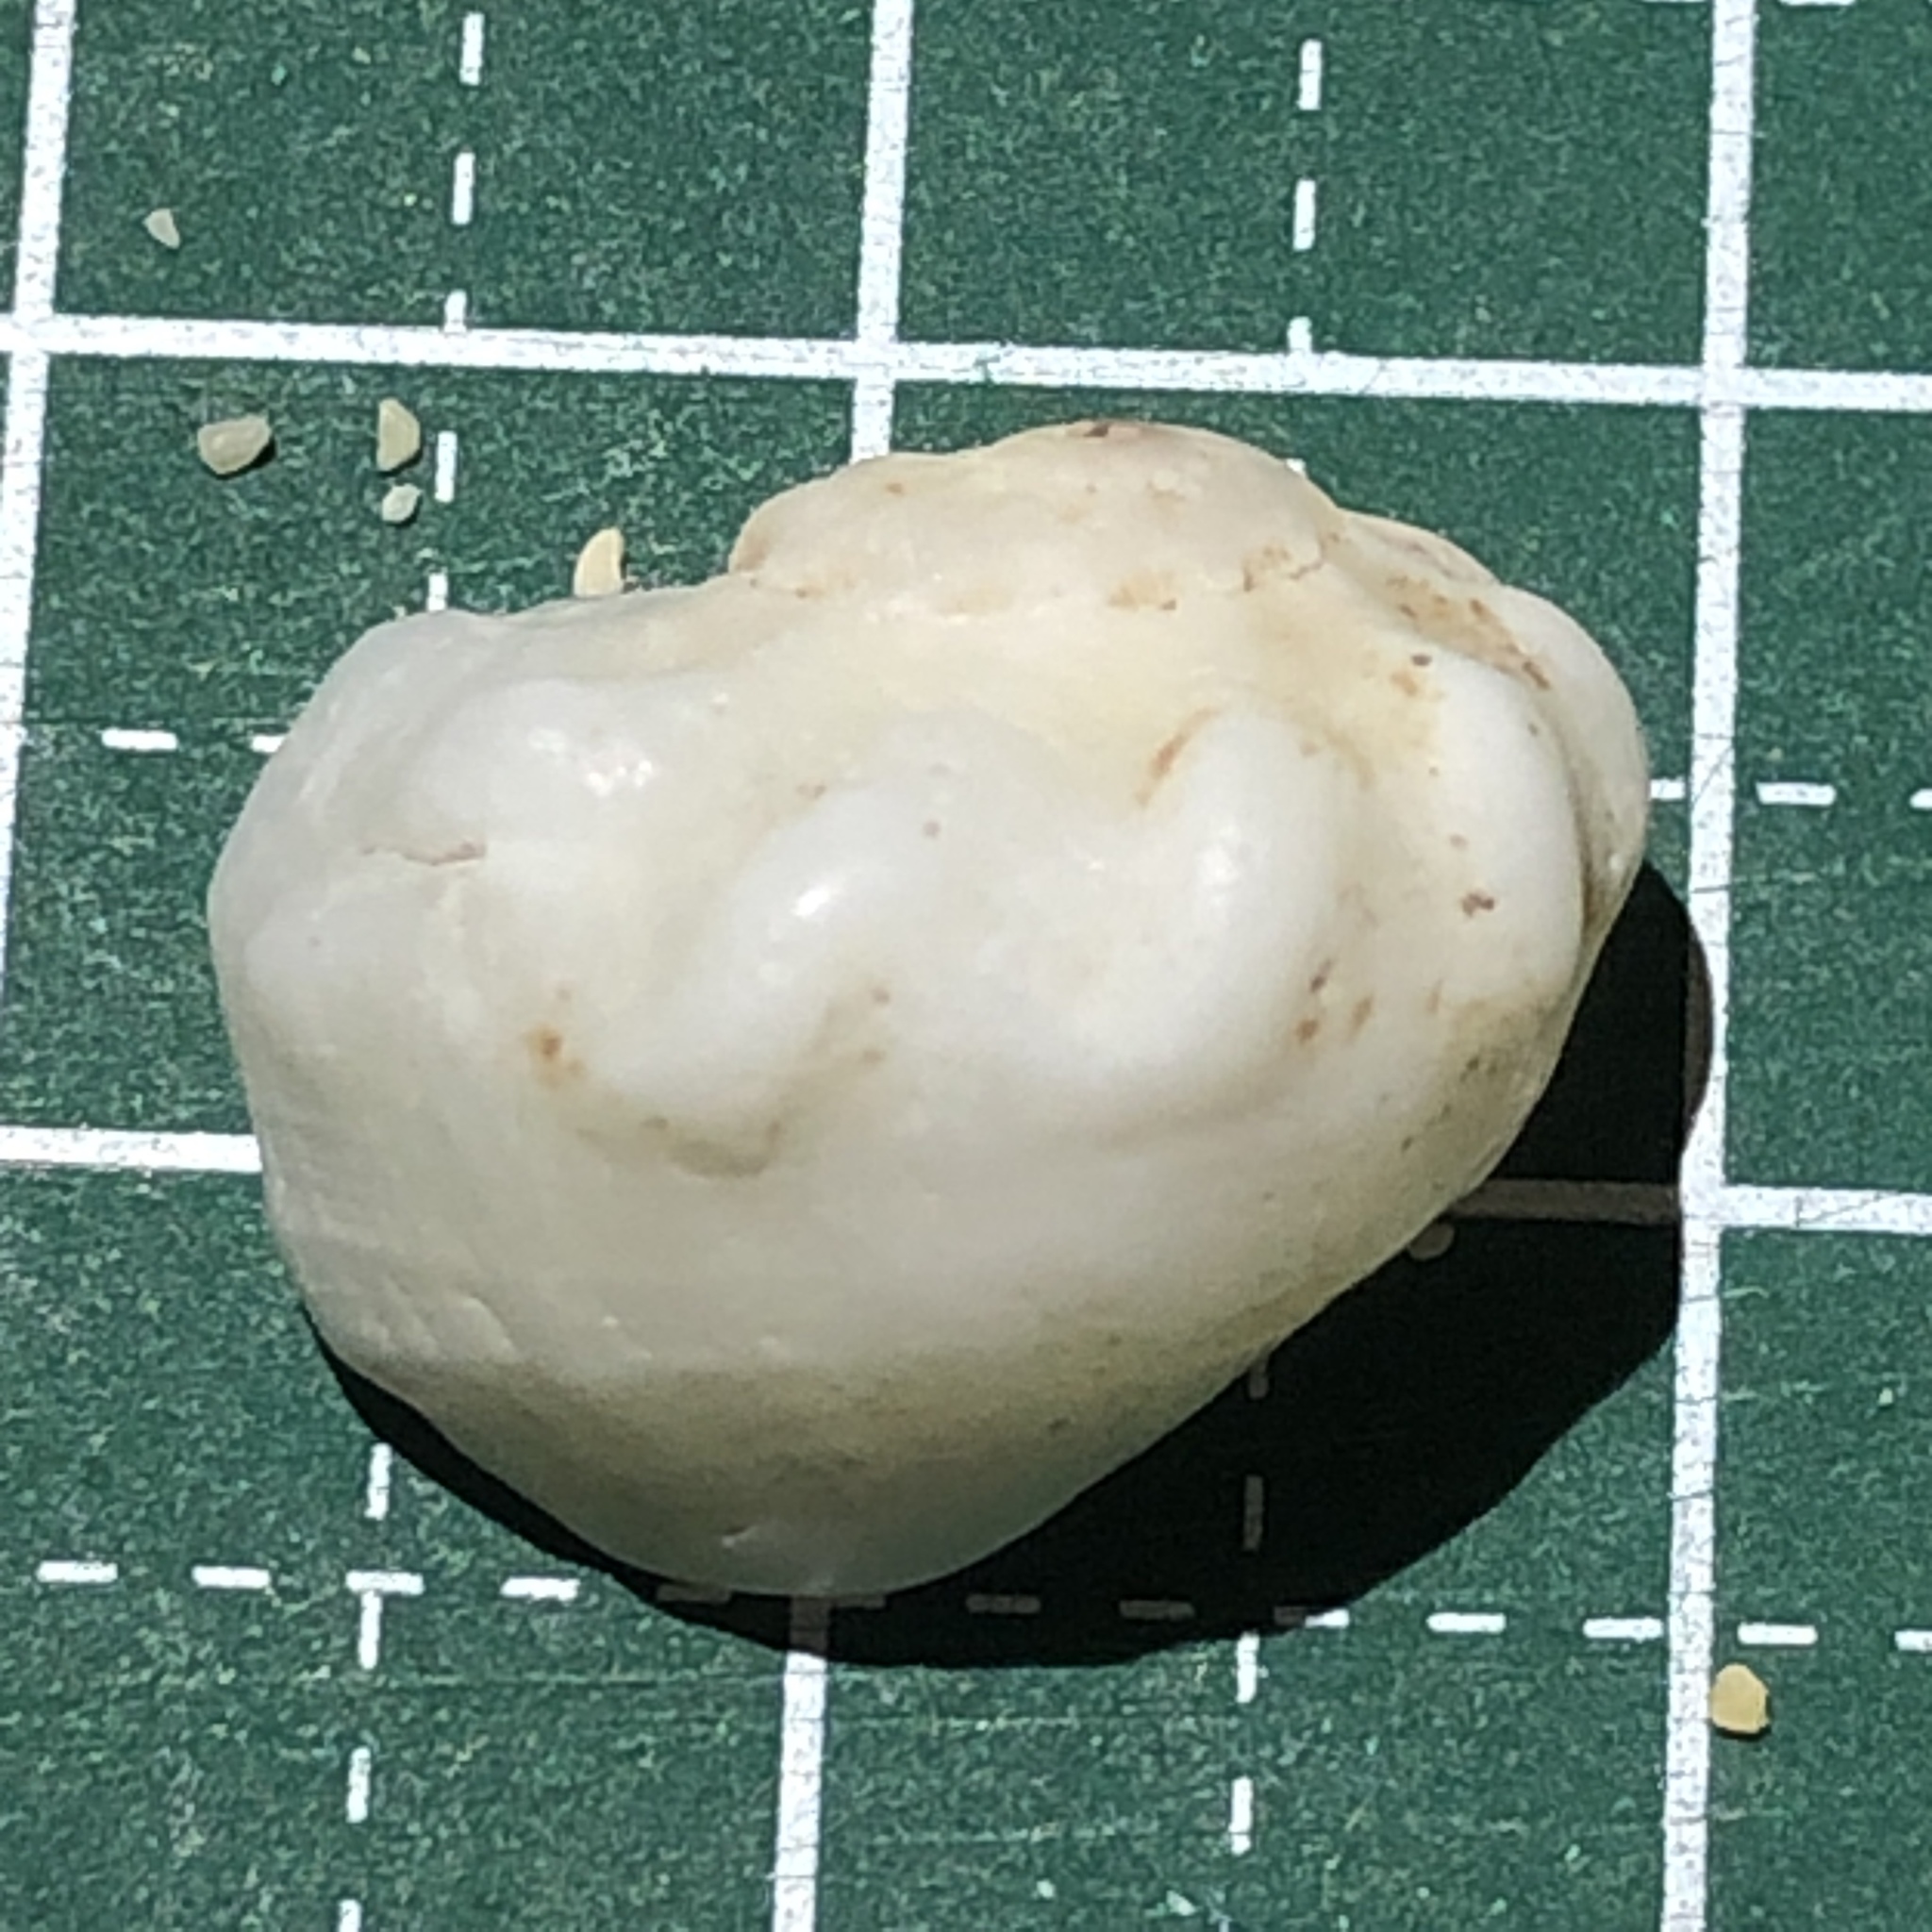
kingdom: Animalia
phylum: Mollusca
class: Gastropoda
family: Modulidae
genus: Indomodulus
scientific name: Indomodulus tectum
